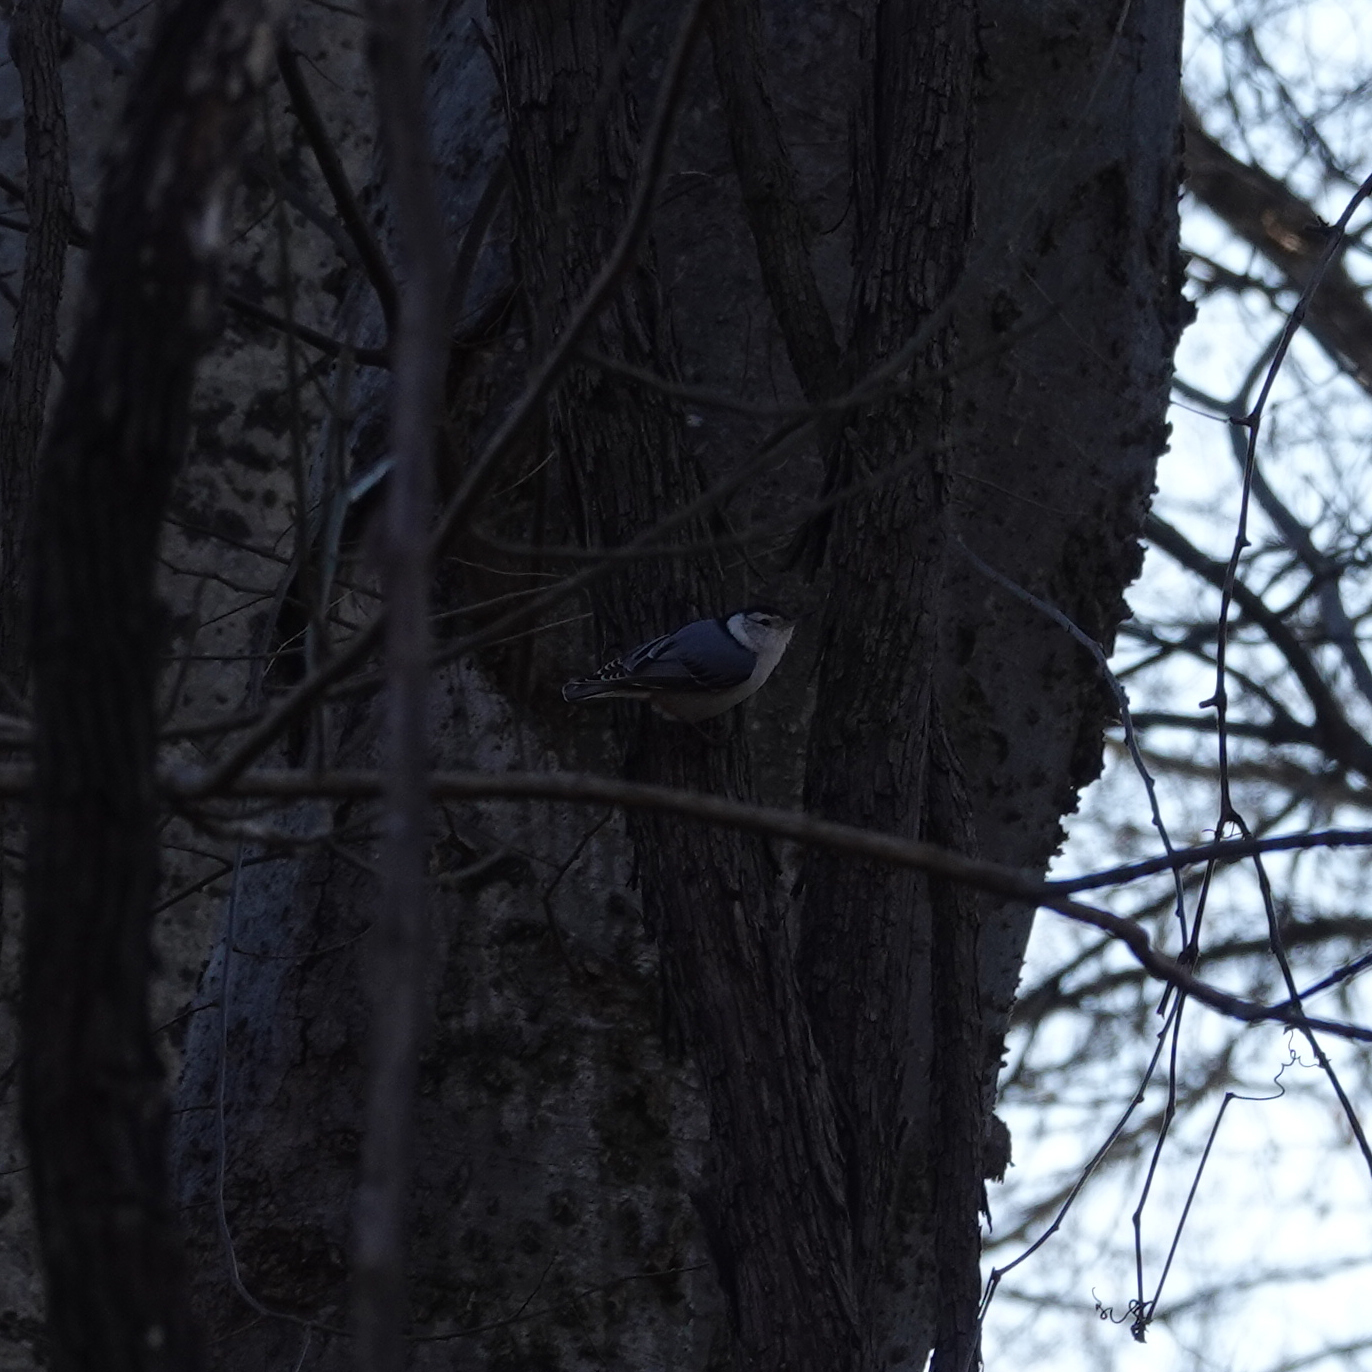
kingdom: Animalia
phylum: Chordata
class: Aves
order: Passeriformes
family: Sittidae
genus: Sitta
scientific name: Sitta carolinensis
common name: White-breasted nuthatch
